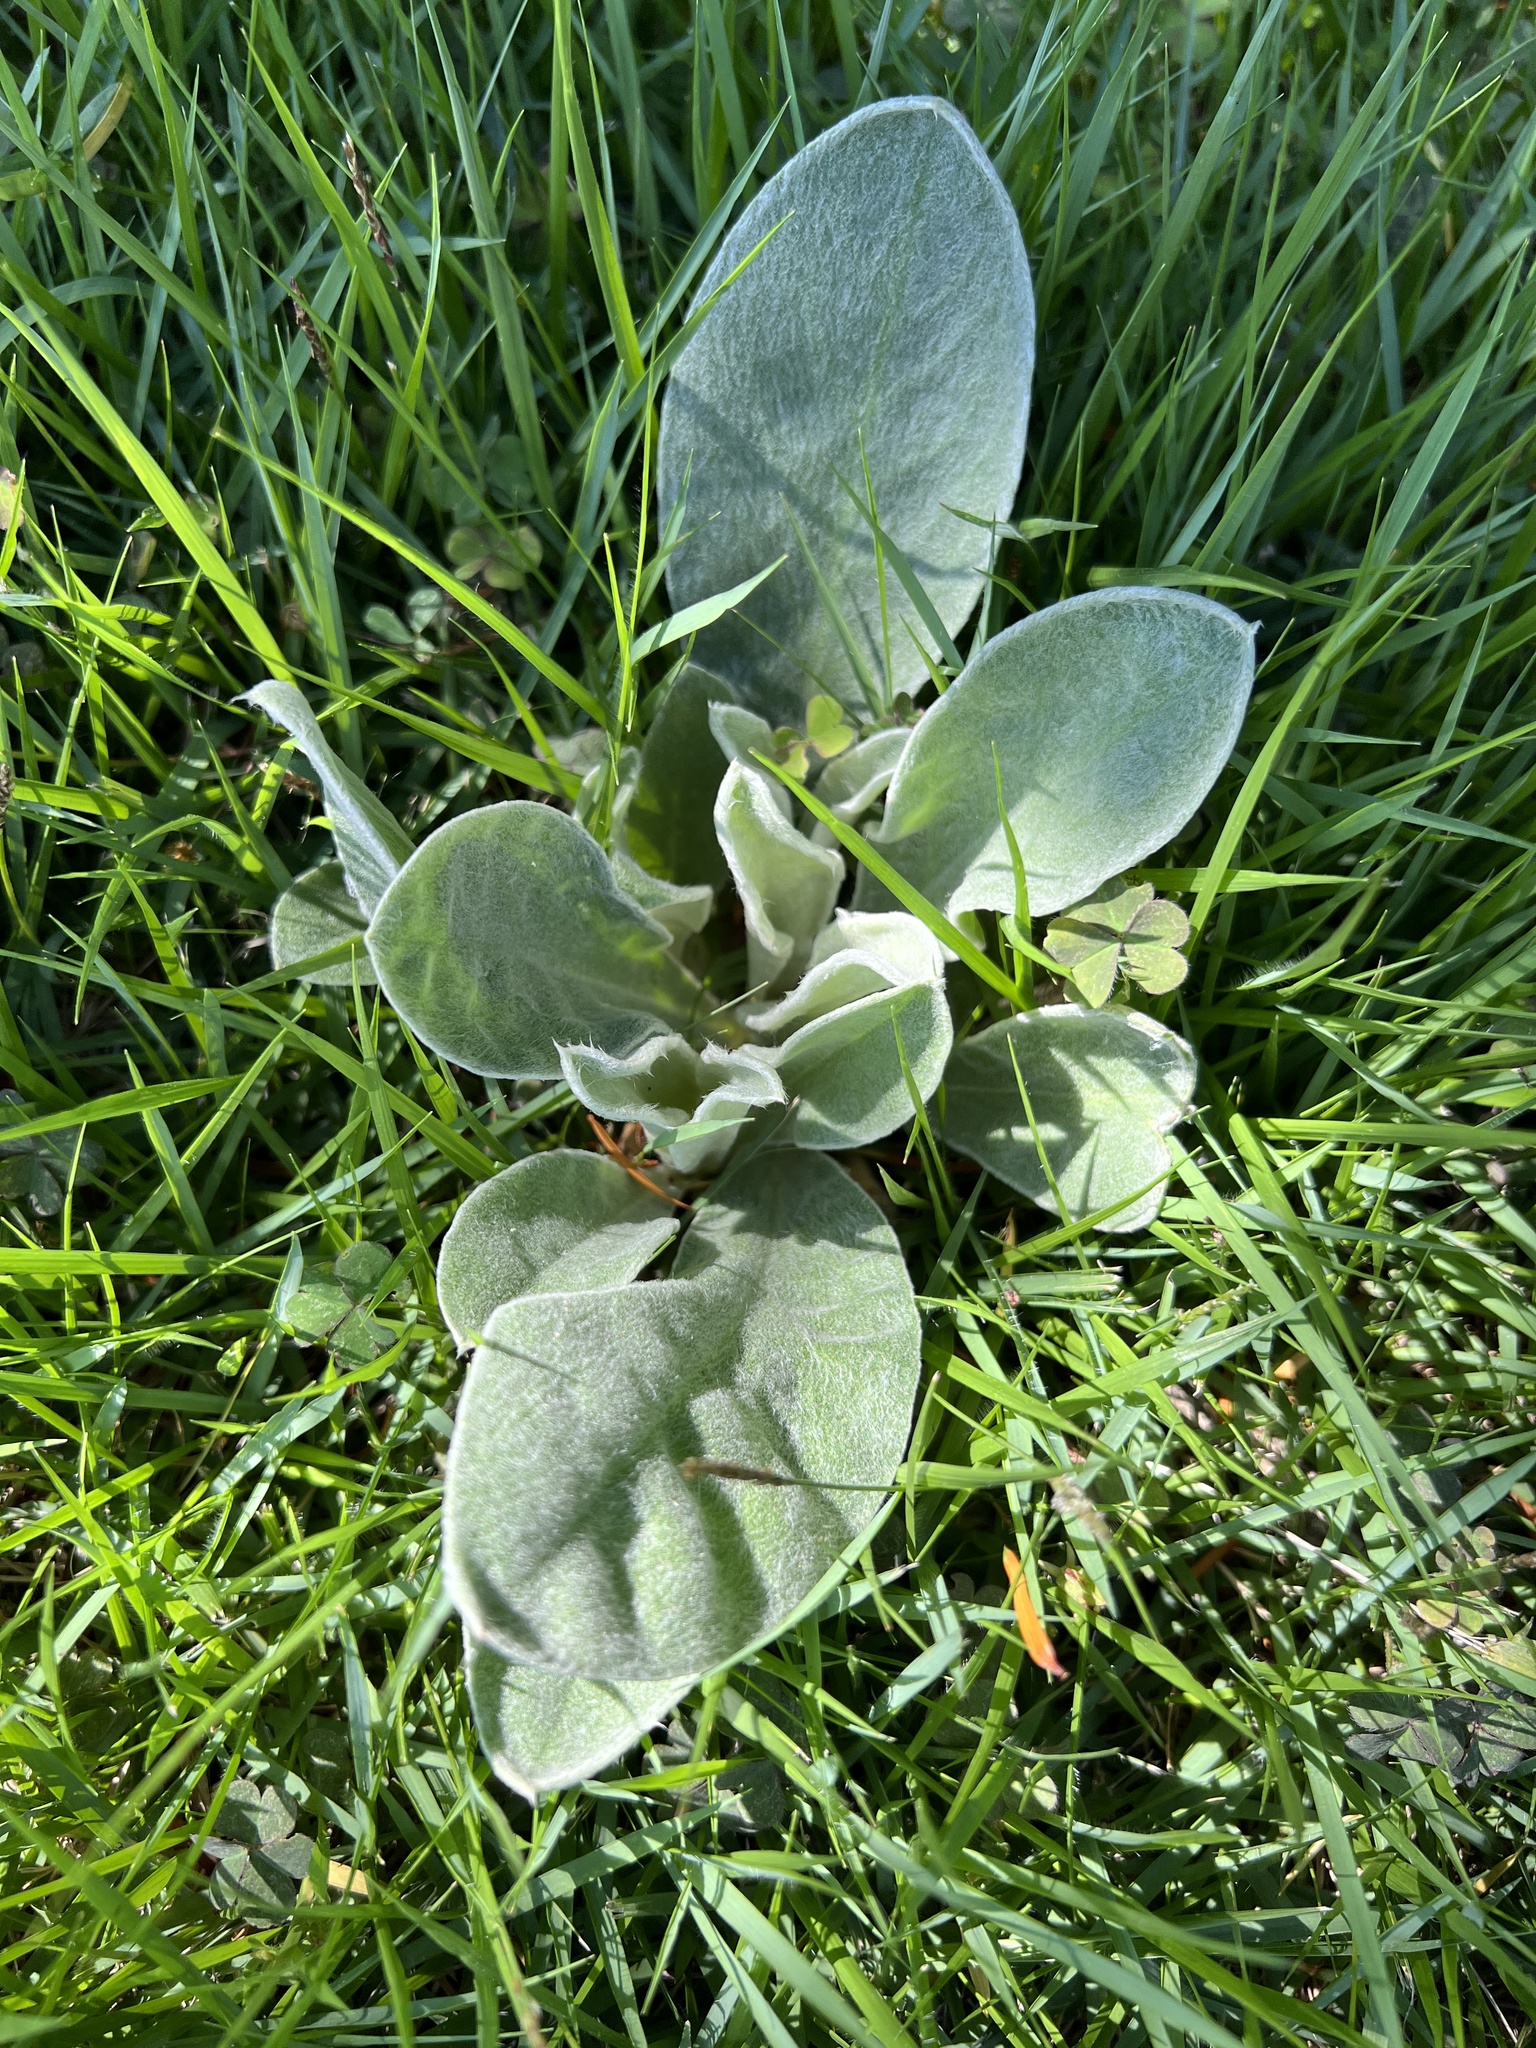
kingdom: Plantae
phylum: Tracheophyta
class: Magnoliopsida
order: Lamiales
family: Scrophulariaceae
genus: Verbascum
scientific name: Verbascum thapsus
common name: Common mullein
